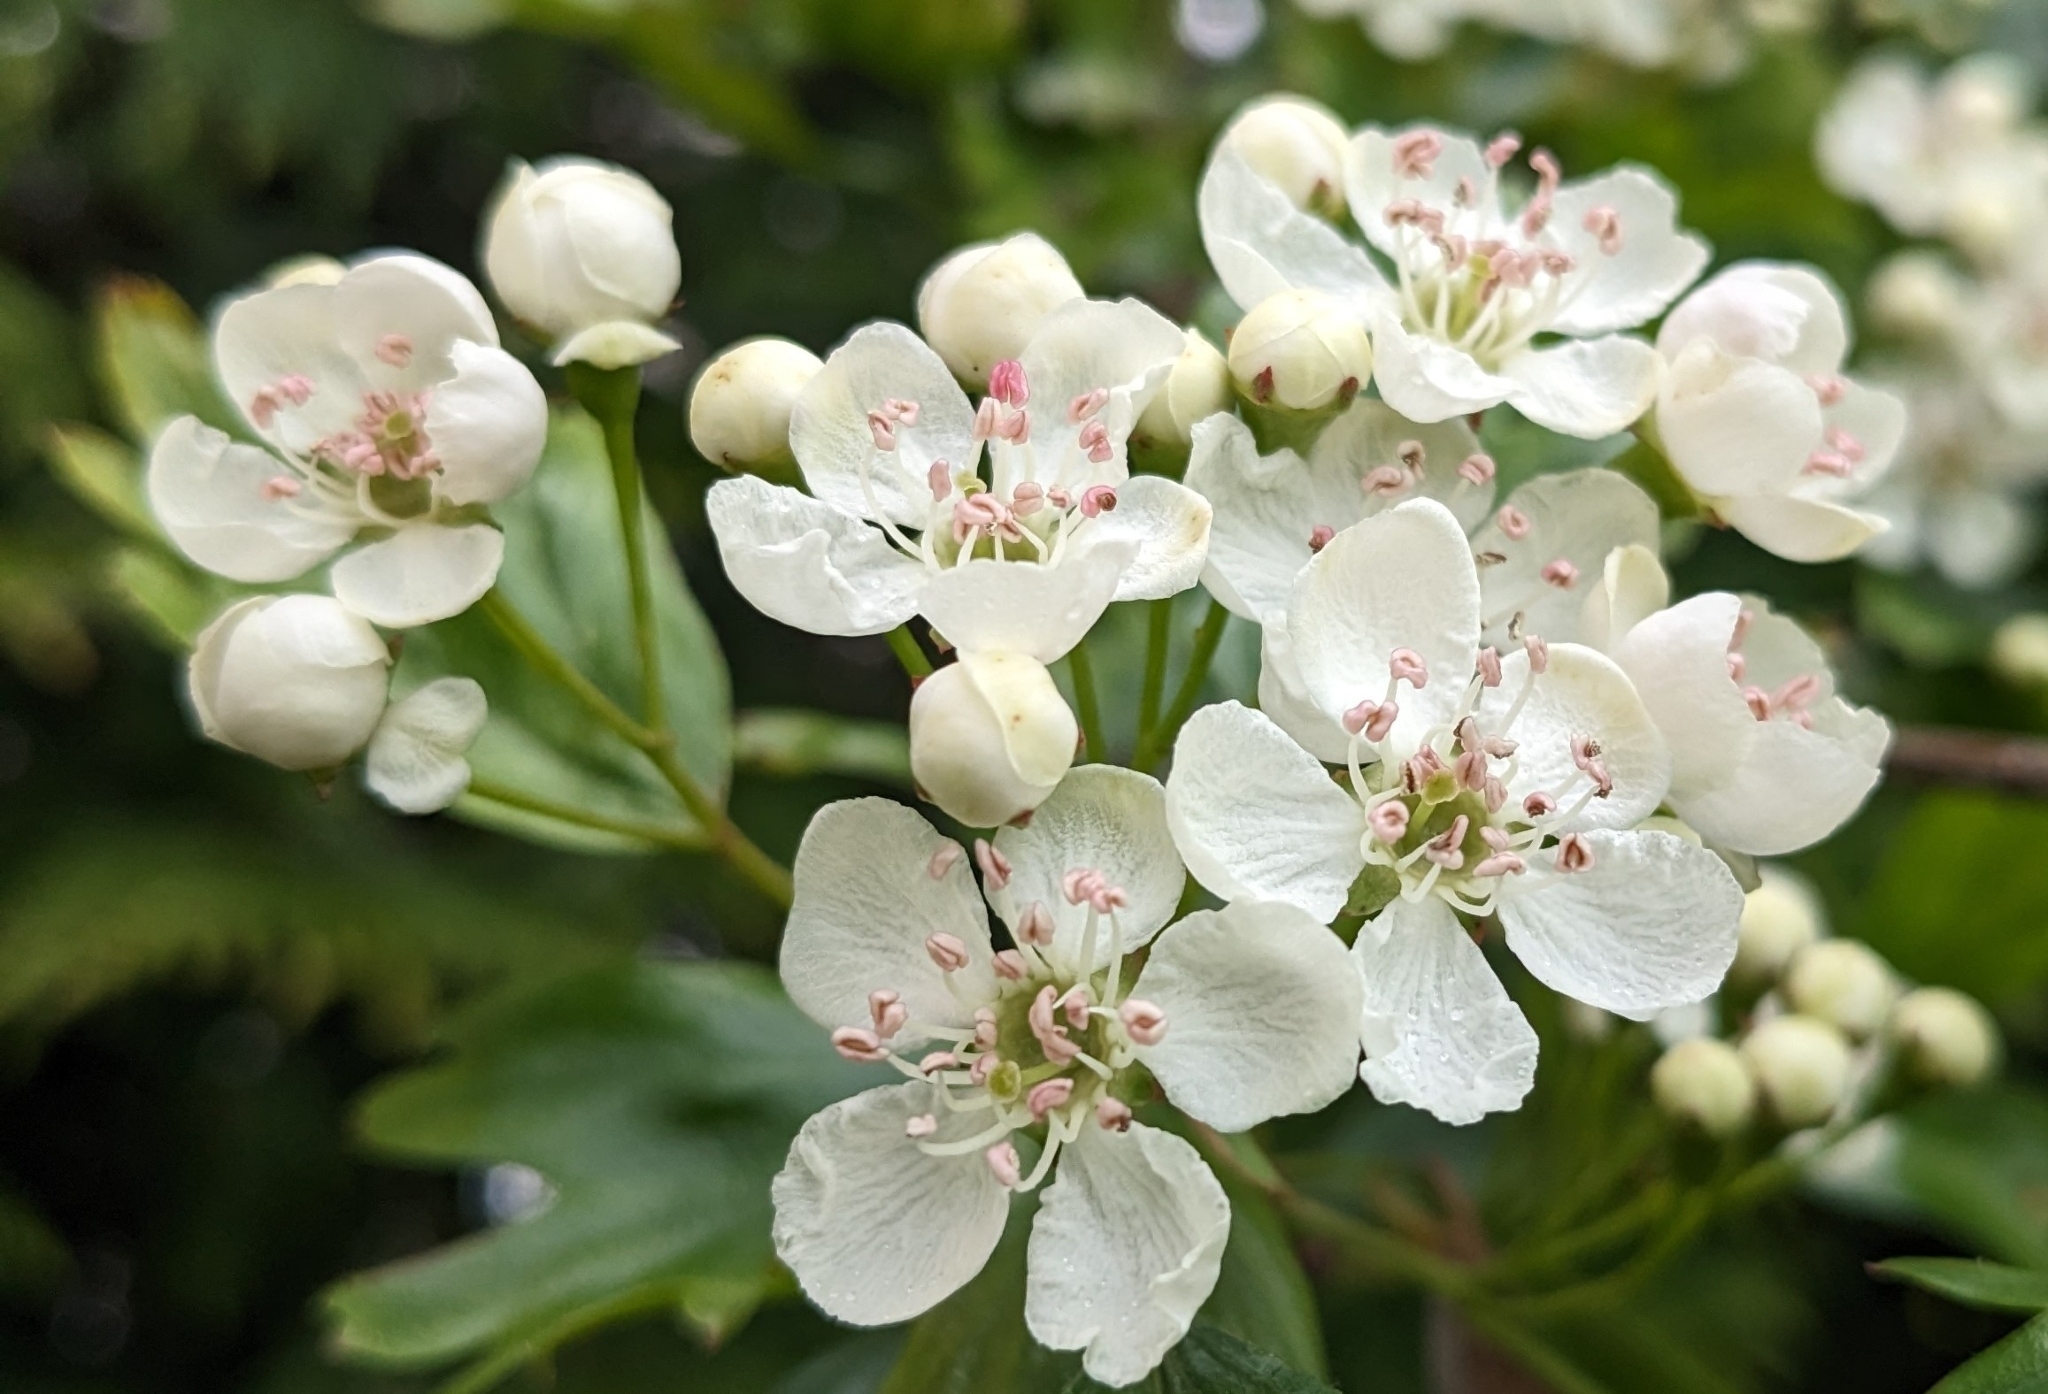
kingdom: Plantae
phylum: Tracheophyta
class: Magnoliopsida
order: Rosales
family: Rosaceae
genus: Crataegus
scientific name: Crataegus monogyna
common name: Hawthorn
